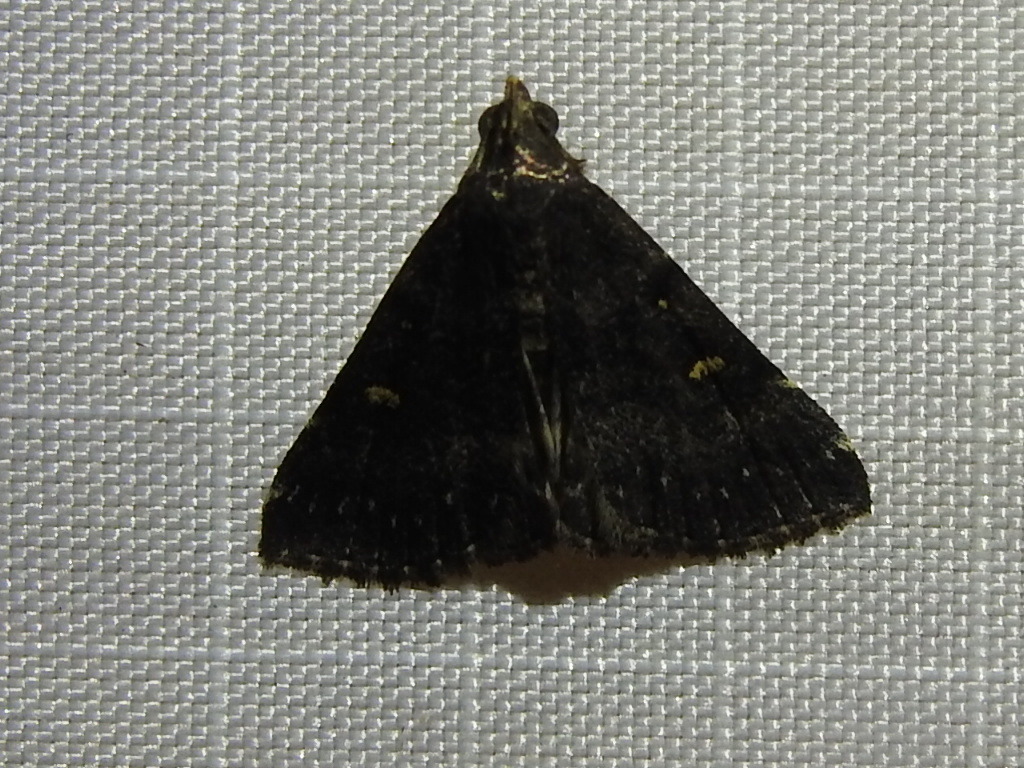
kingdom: Animalia
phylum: Arthropoda
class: Insecta
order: Lepidoptera
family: Erebidae
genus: Tetanolita
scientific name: Tetanolita mynesalis
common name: Smoky tetanolita moth
